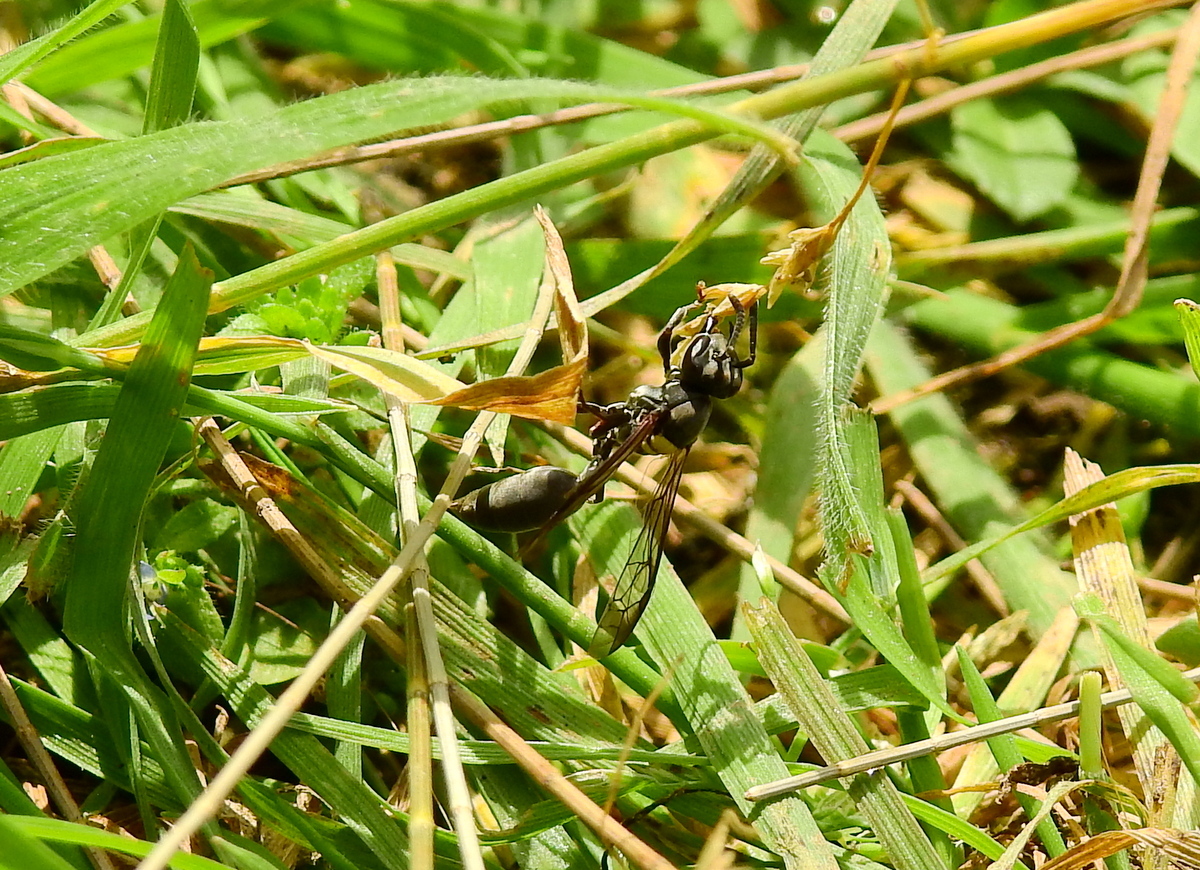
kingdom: Animalia
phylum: Arthropoda
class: Insecta
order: Hymenoptera
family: Eumenidae
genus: Polybia
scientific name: Polybia scutellaris
